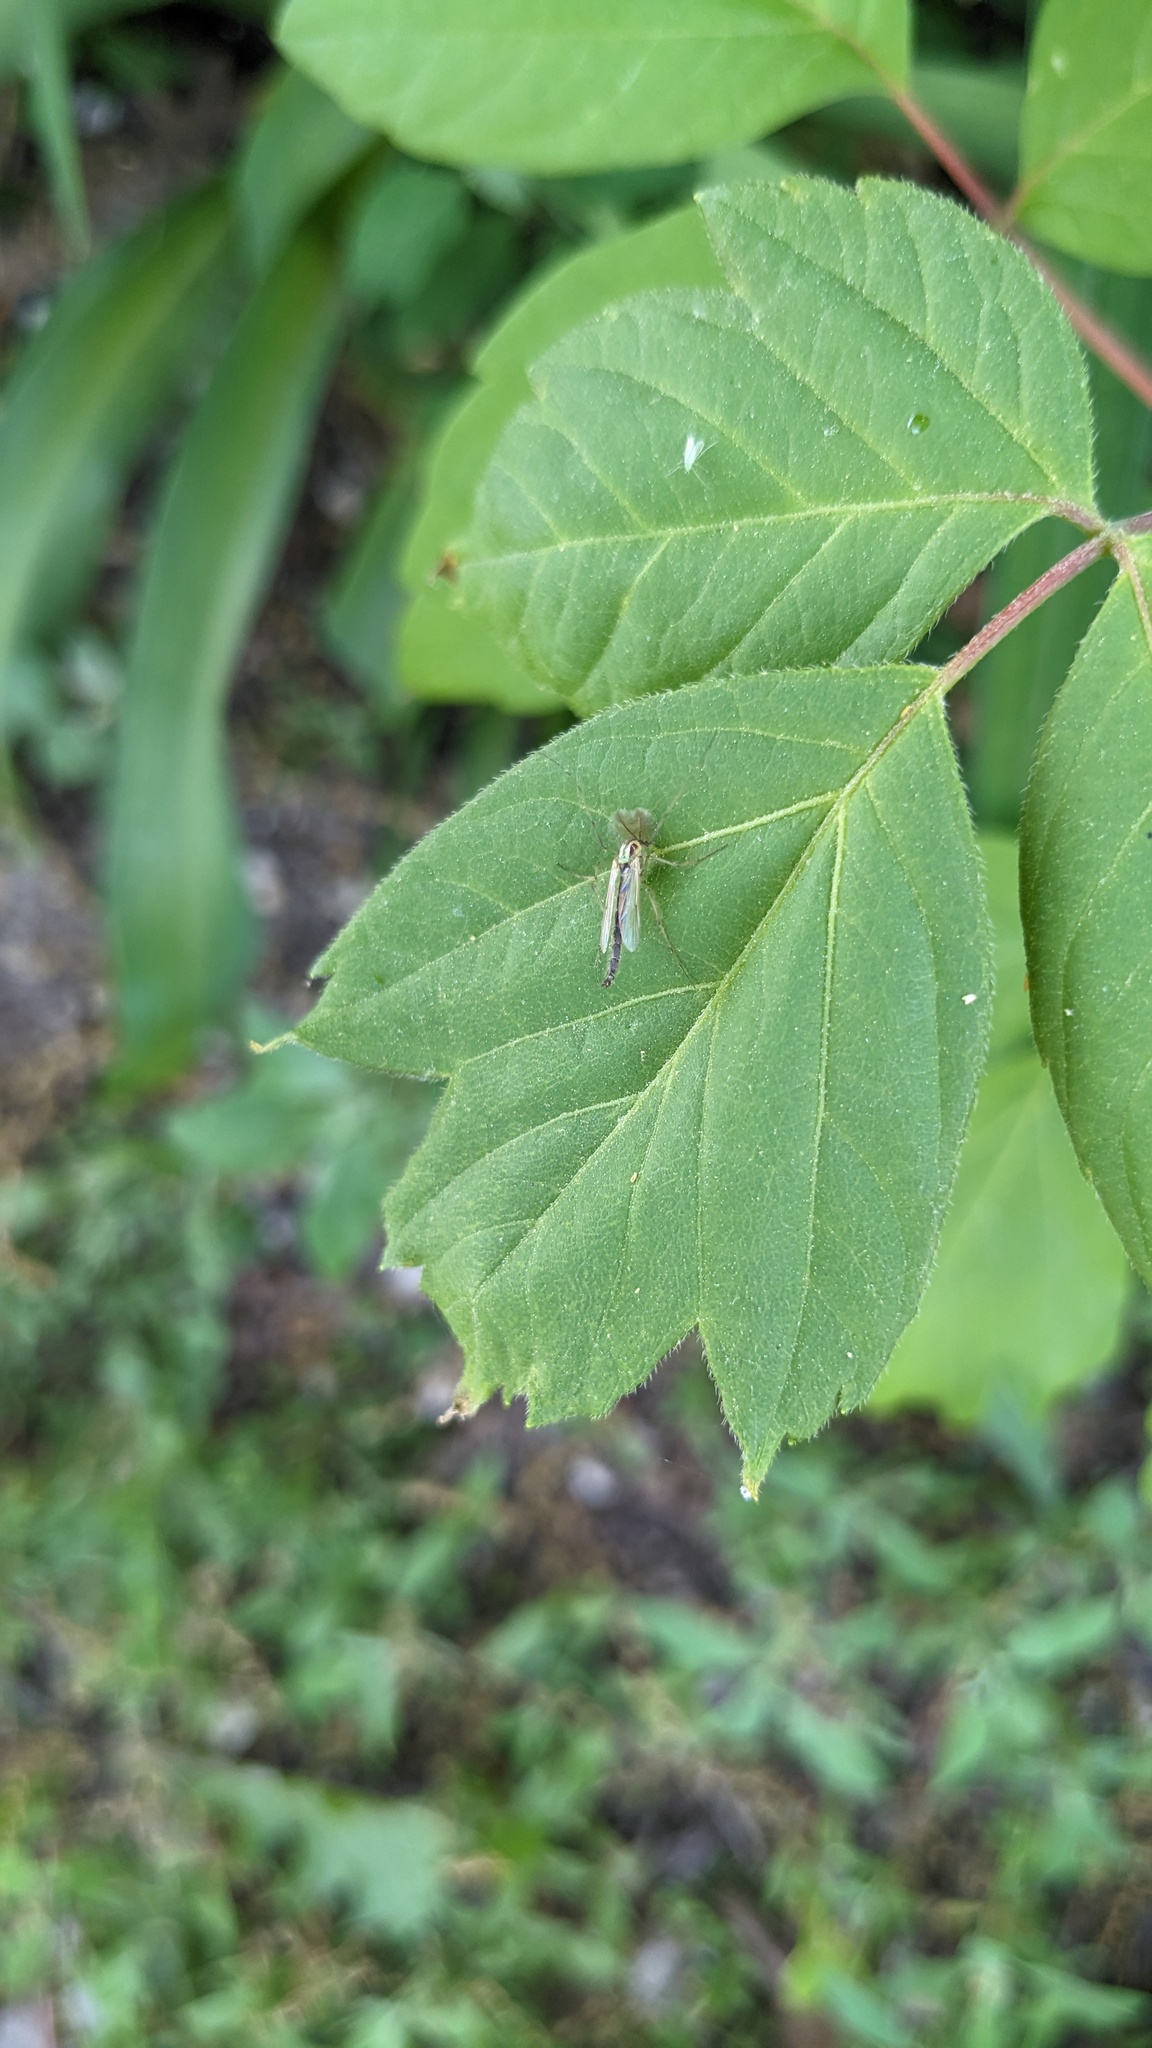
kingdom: Plantae
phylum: Tracheophyta
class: Magnoliopsida
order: Sapindales
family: Sapindaceae
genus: Acer
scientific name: Acer negundo
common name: Ashleaf maple
